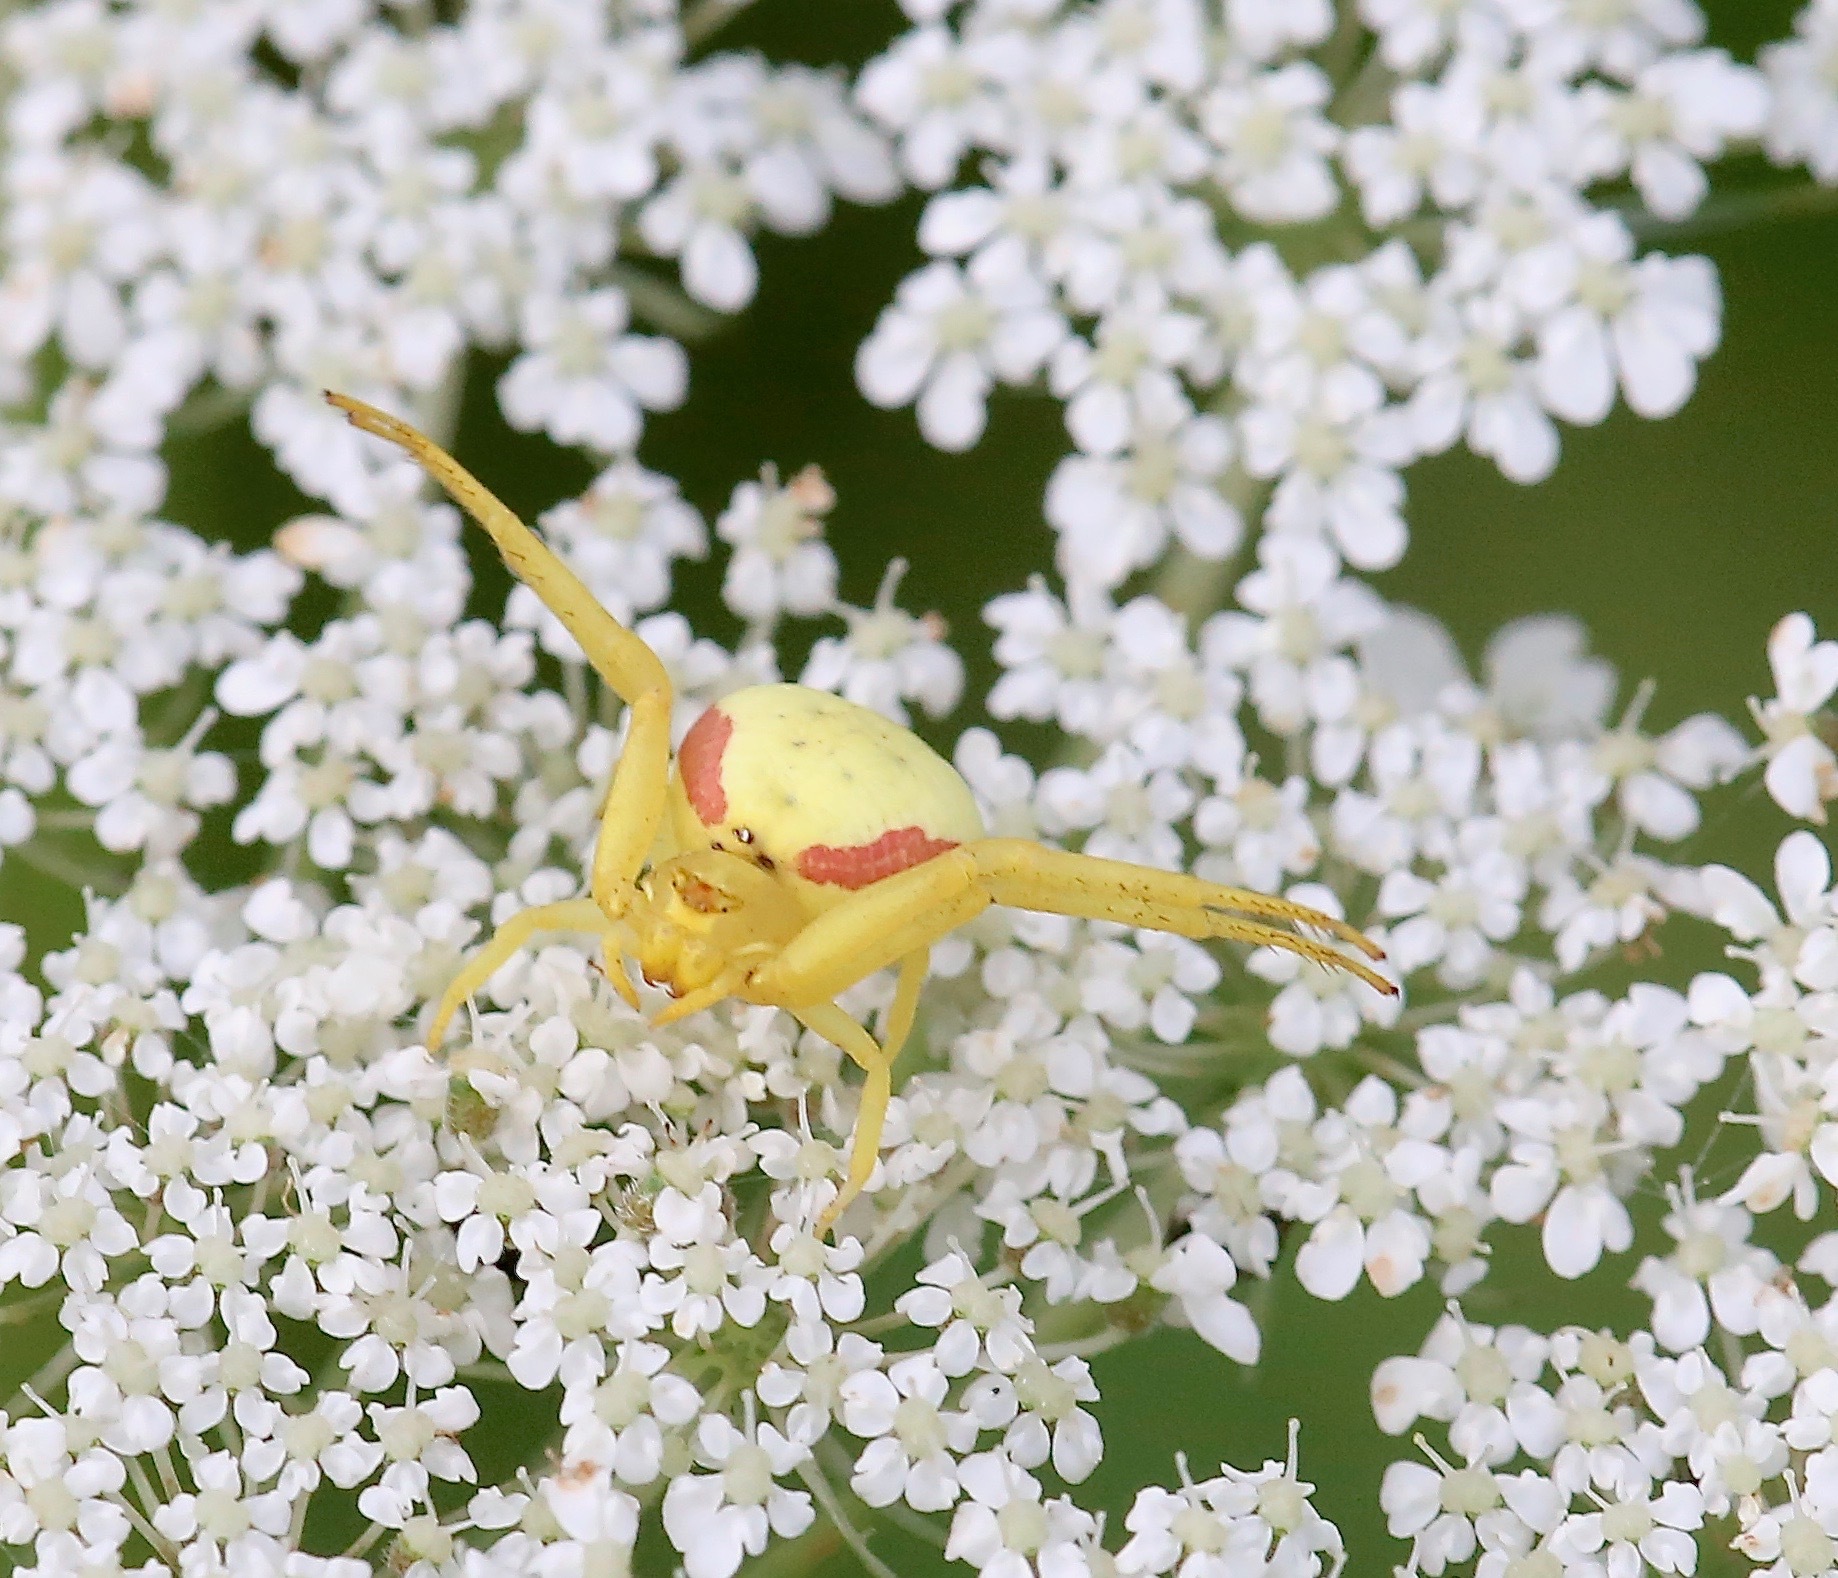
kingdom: Animalia
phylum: Arthropoda
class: Arachnida
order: Araneae
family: Thomisidae
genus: Misumena
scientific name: Misumena vatia
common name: Goldenrod crab spider
